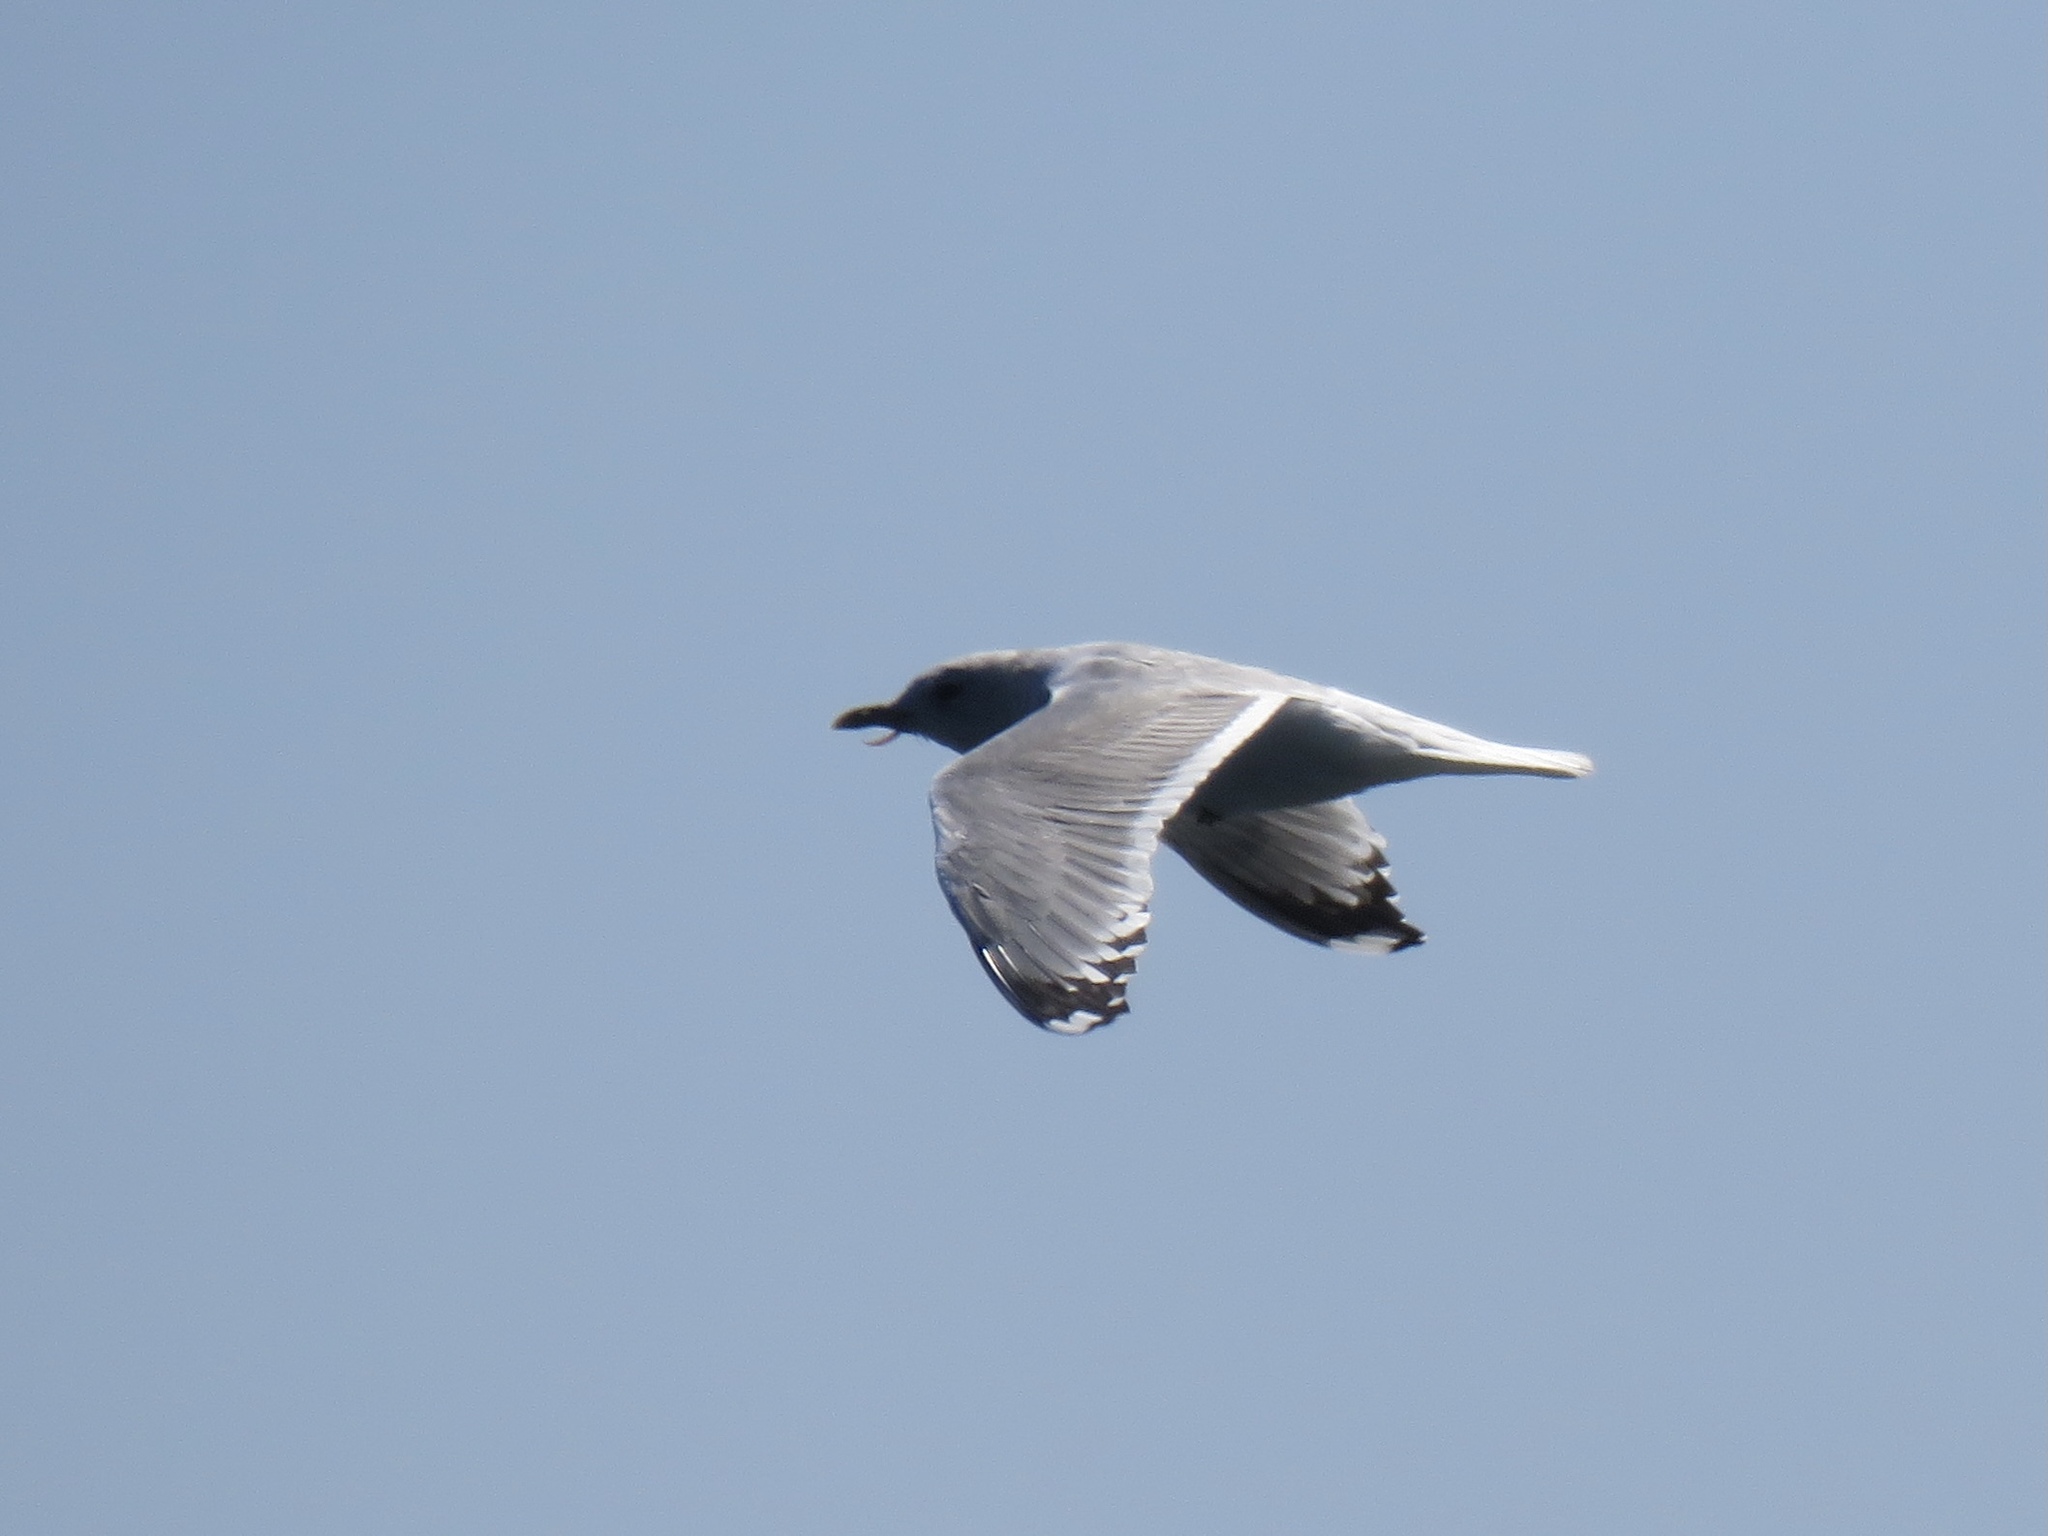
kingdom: Animalia
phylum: Chordata
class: Aves
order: Charadriiformes
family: Laridae
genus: Larus
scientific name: Larus brachyrhynchus
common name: Short-billed gull
